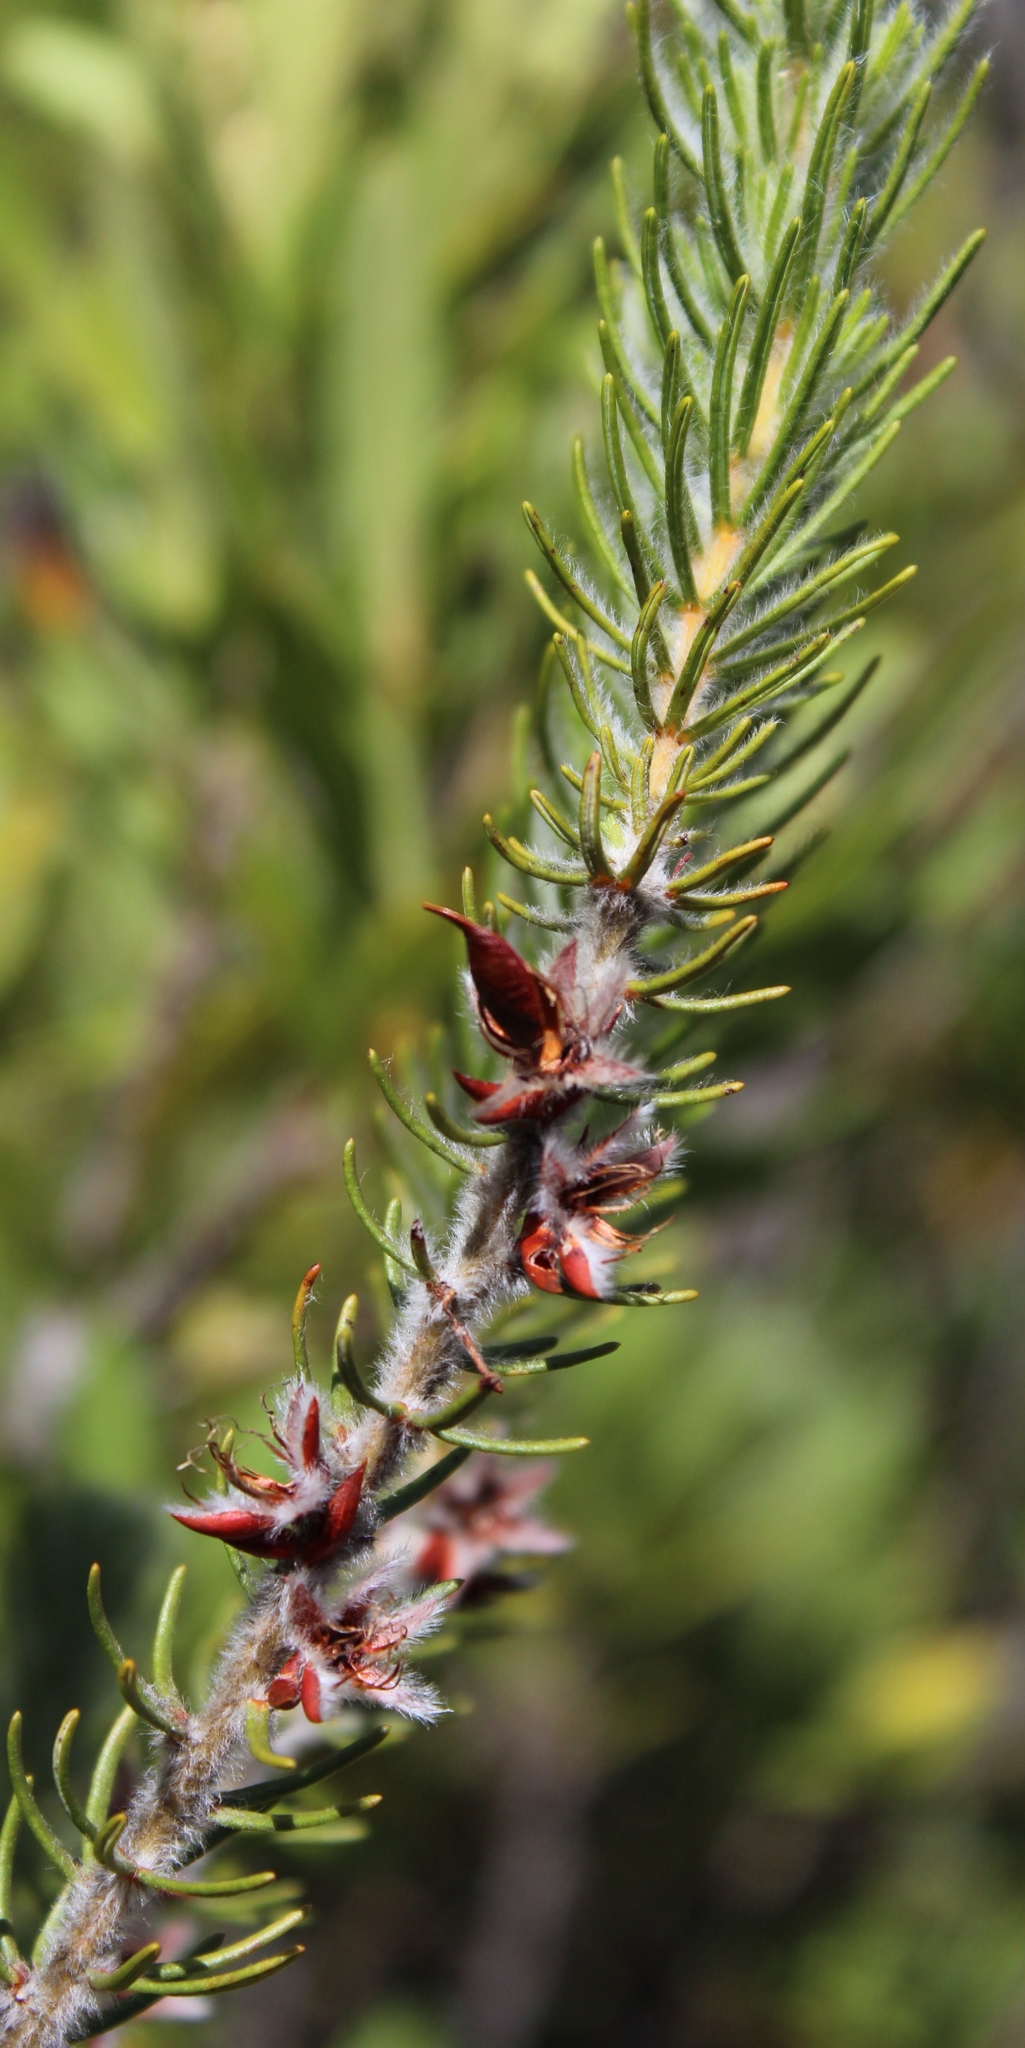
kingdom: Plantae
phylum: Tracheophyta
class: Magnoliopsida
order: Fabales
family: Fabaceae
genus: Cyclopia
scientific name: Cyclopia meyeriana
